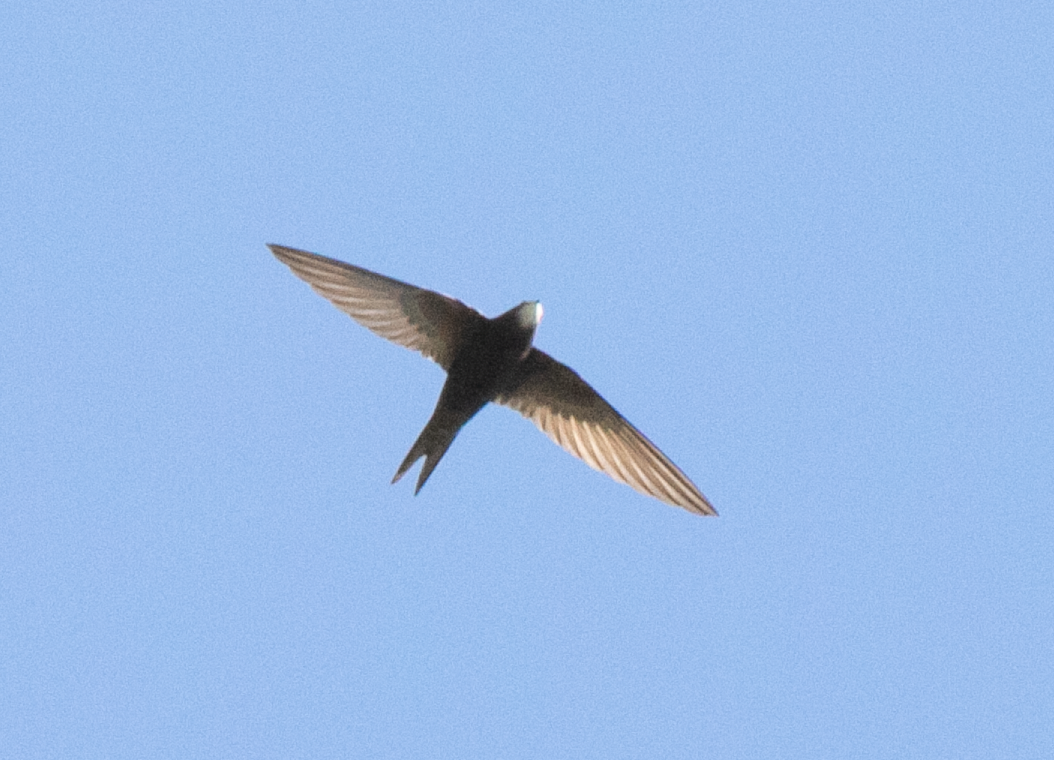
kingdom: Animalia
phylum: Chordata
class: Aves
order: Apodiformes
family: Apodidae
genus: Apus
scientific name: Apus apus
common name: Common swift
